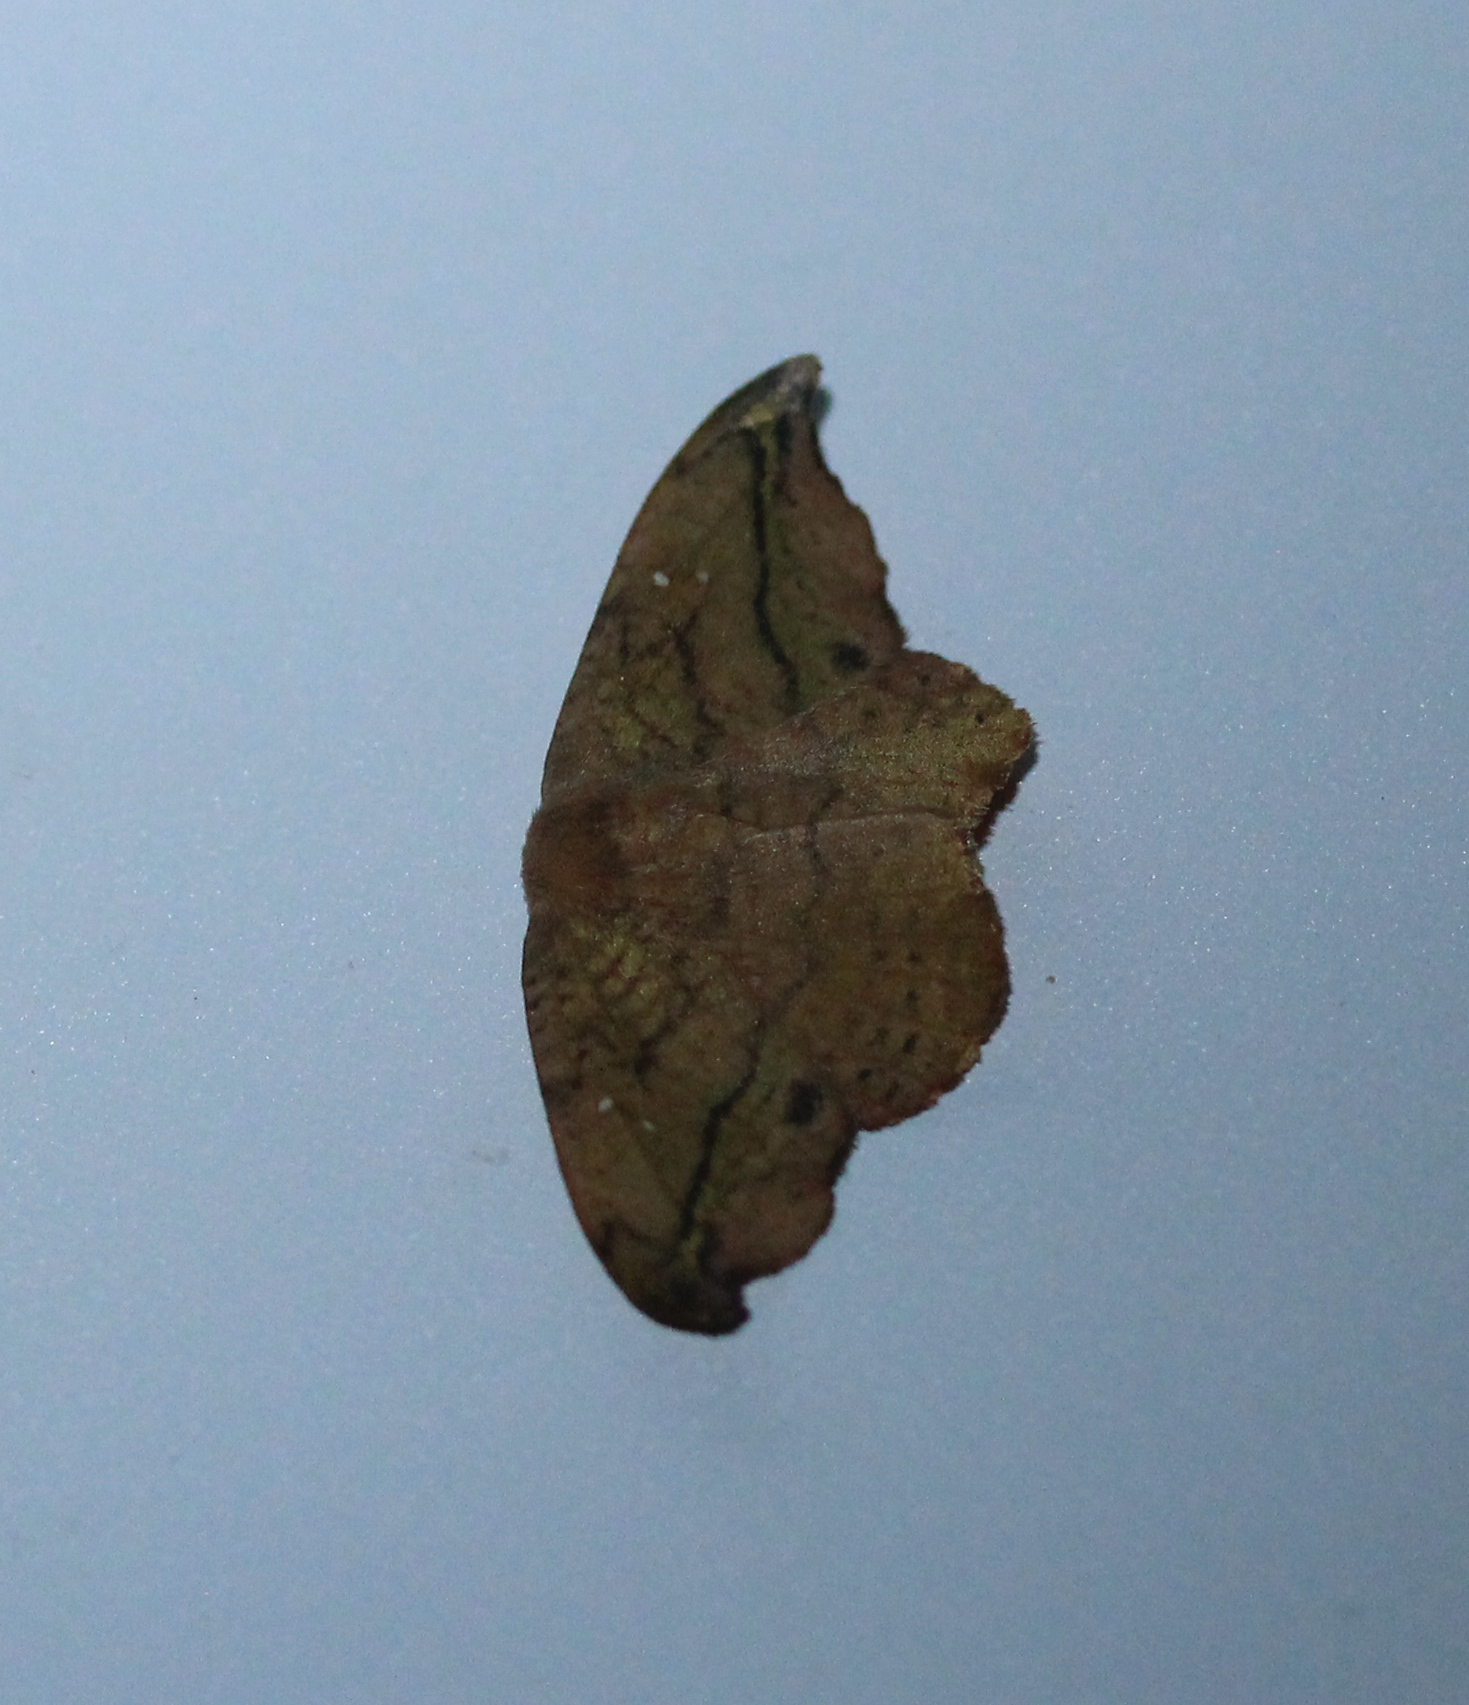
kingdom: Animalia
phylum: Arthropoda
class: Insecta
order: Lepidoptera
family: Drepanidae
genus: Oreta
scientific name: Oreta rosea
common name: Rose hooktip
